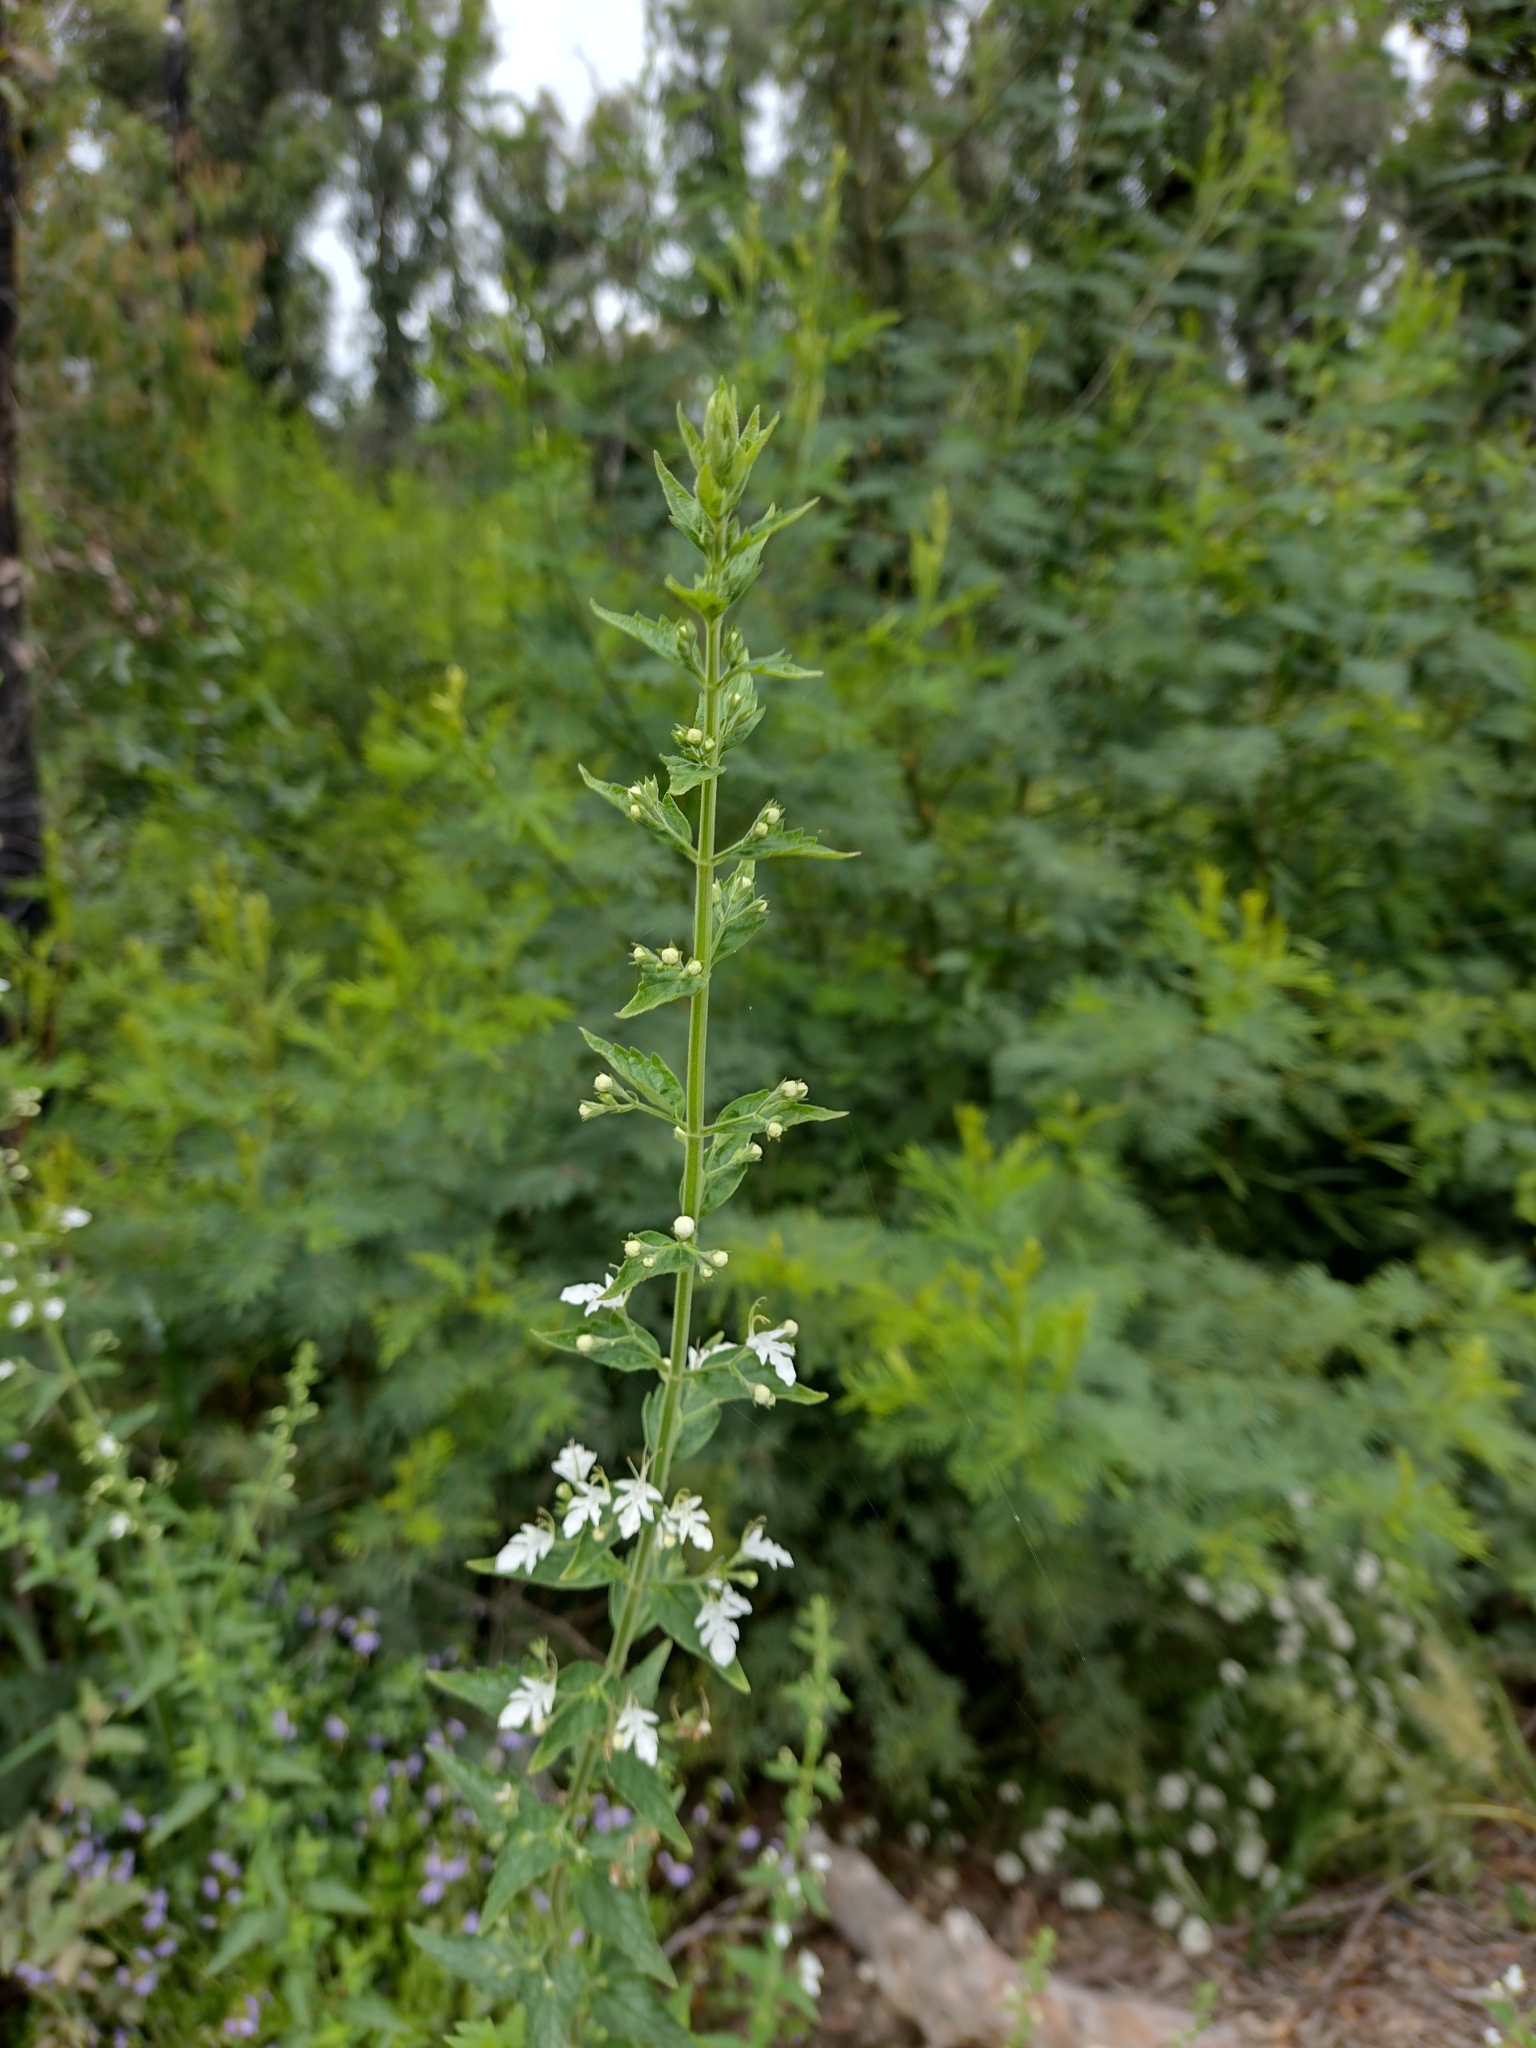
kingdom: Plantae
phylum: Tracheophyta
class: Magnoliopsida
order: Lamiales
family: Lamiaceae
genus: Teucrium
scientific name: Teucrium corymbosum
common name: Forest germander
